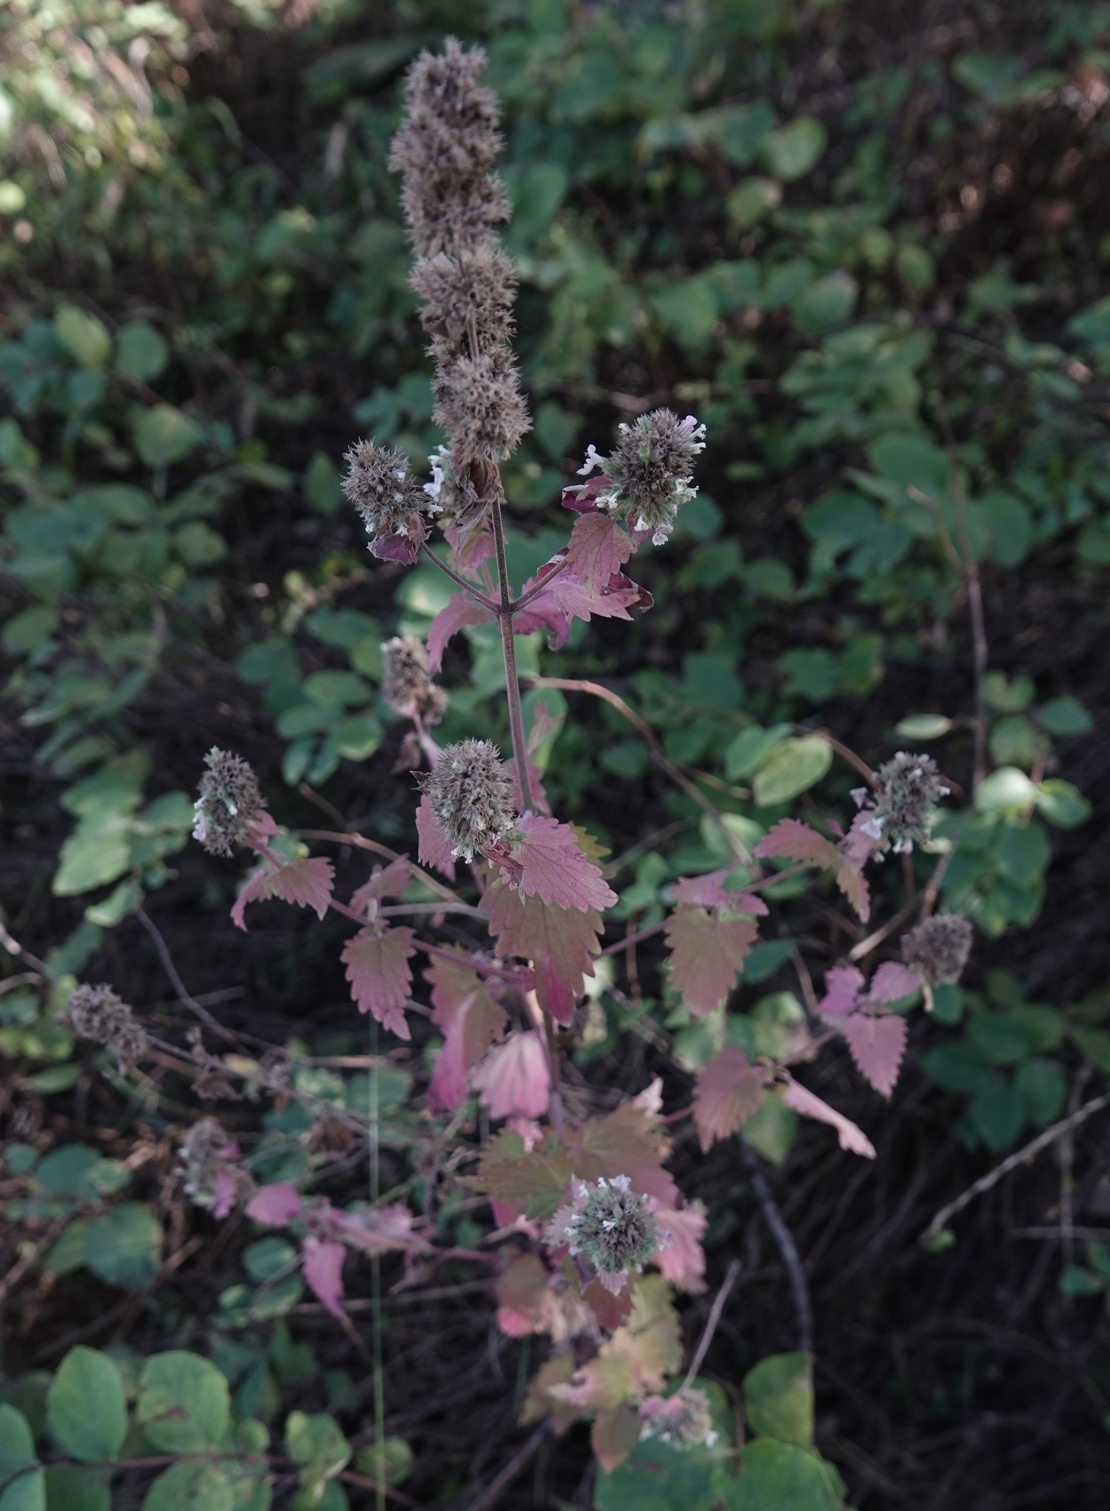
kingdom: Plantae
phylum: Tracheophyta
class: Magnoliopsida
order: Lamiales
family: Lamiaceae
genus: Nepeta
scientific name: Nepeta cataria
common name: Catnip
